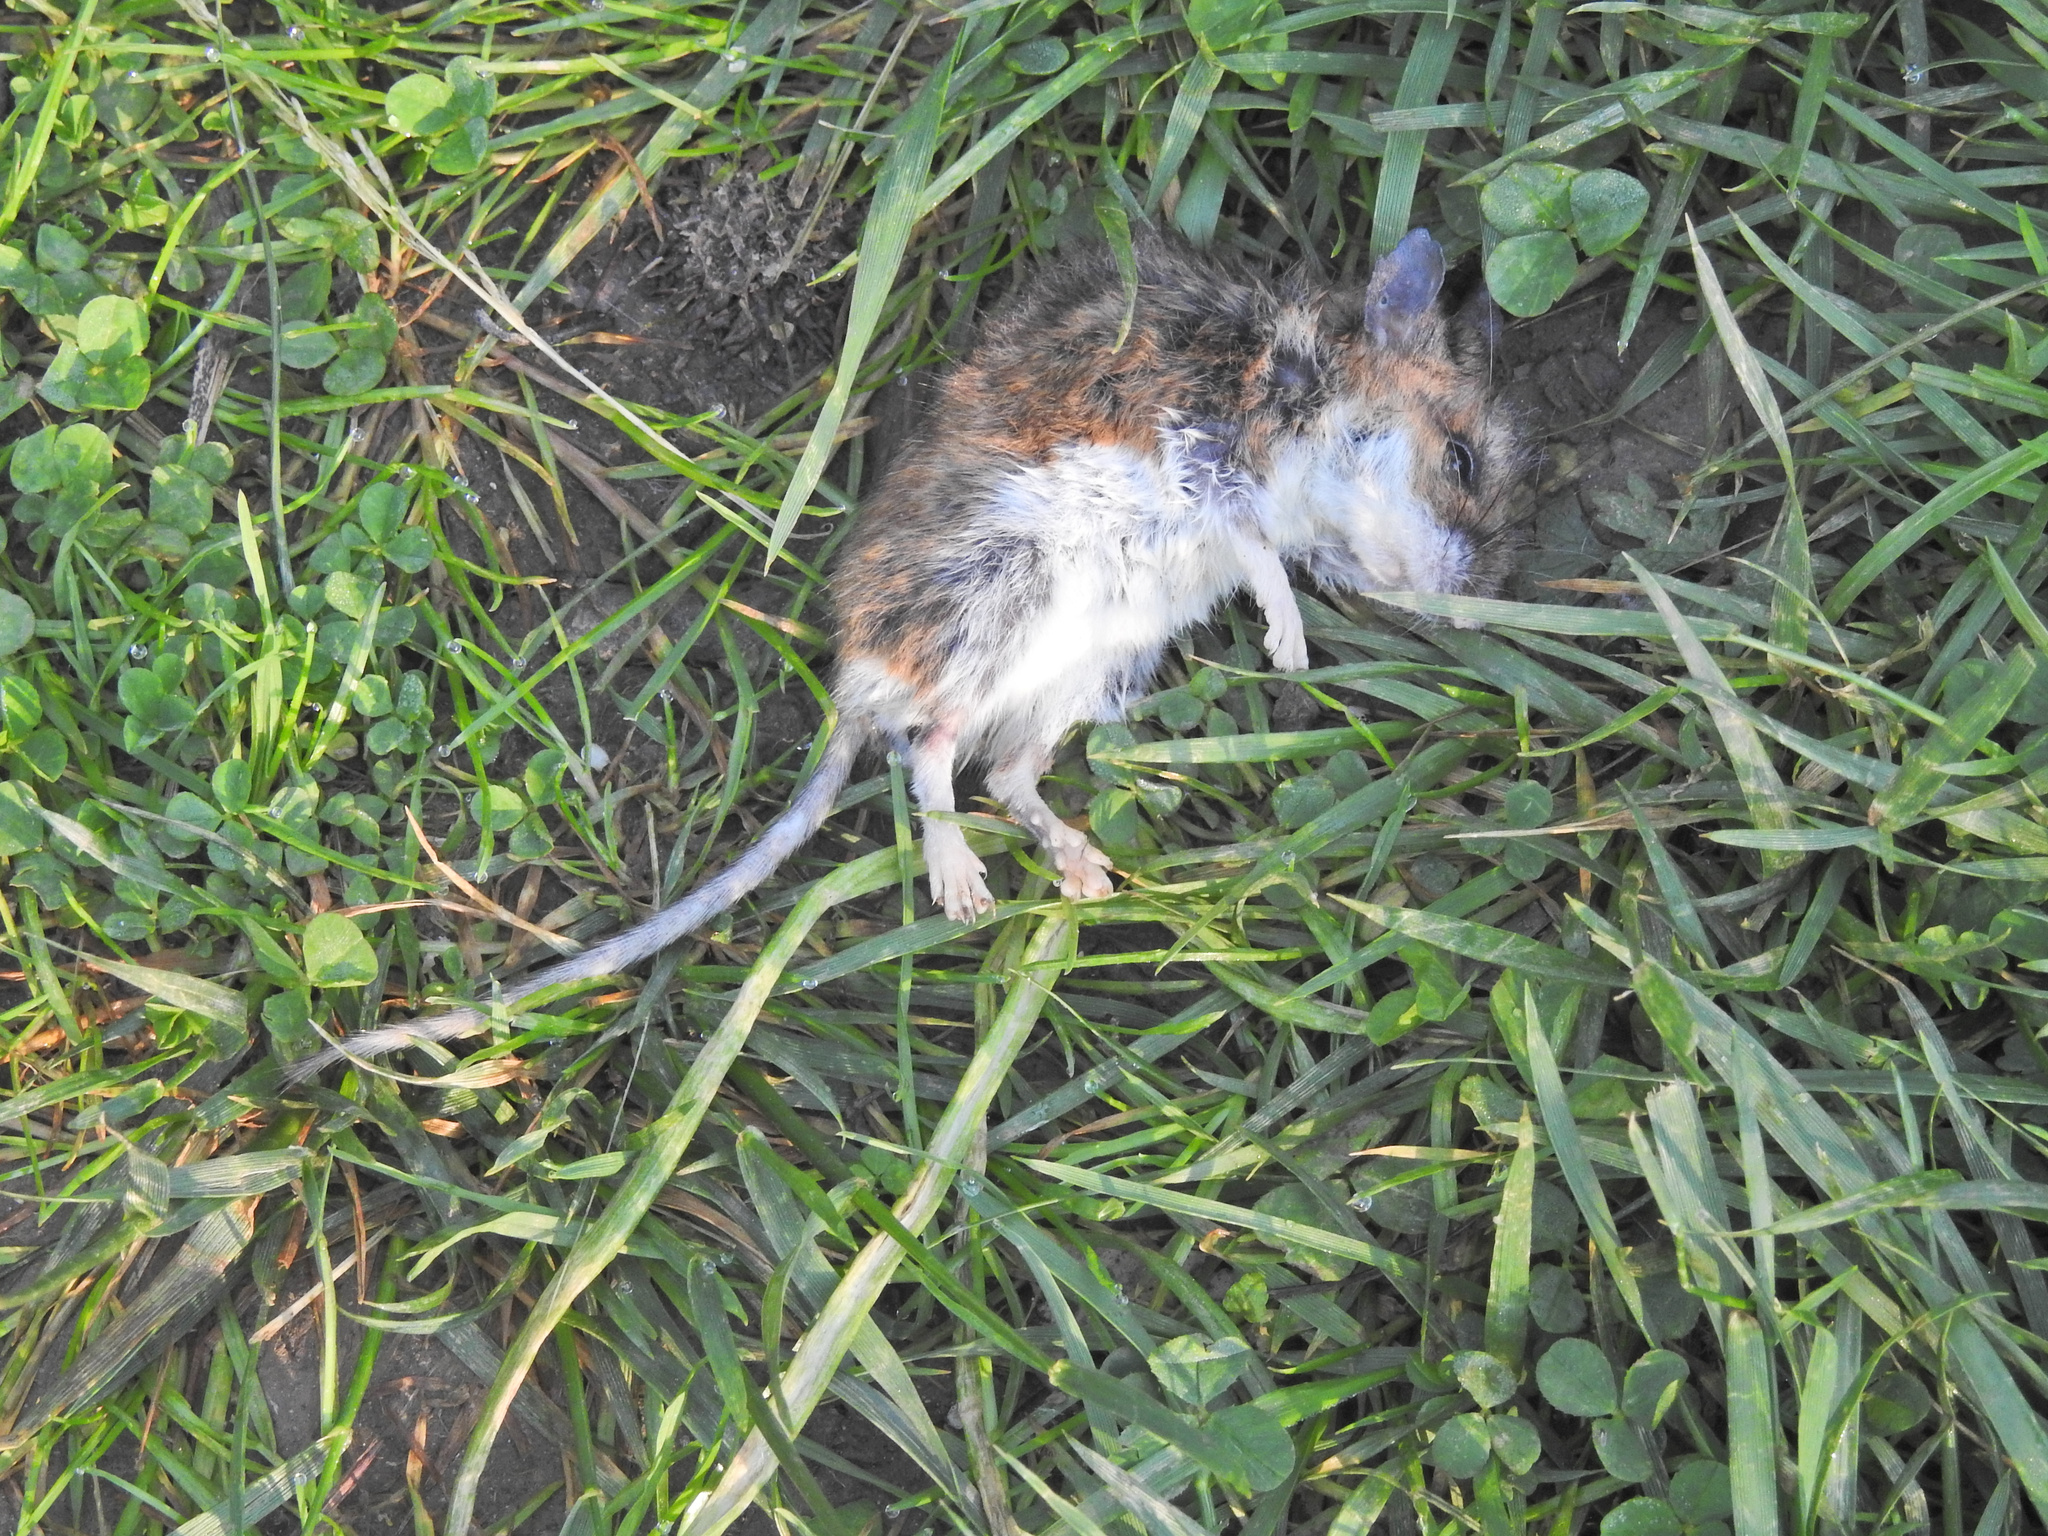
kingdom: Animalia
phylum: Chordata
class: Mammalia
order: Rodentia
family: Cricetidae
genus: Peromyscus
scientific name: Peromyscus leucopus
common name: White-footed deermouse
